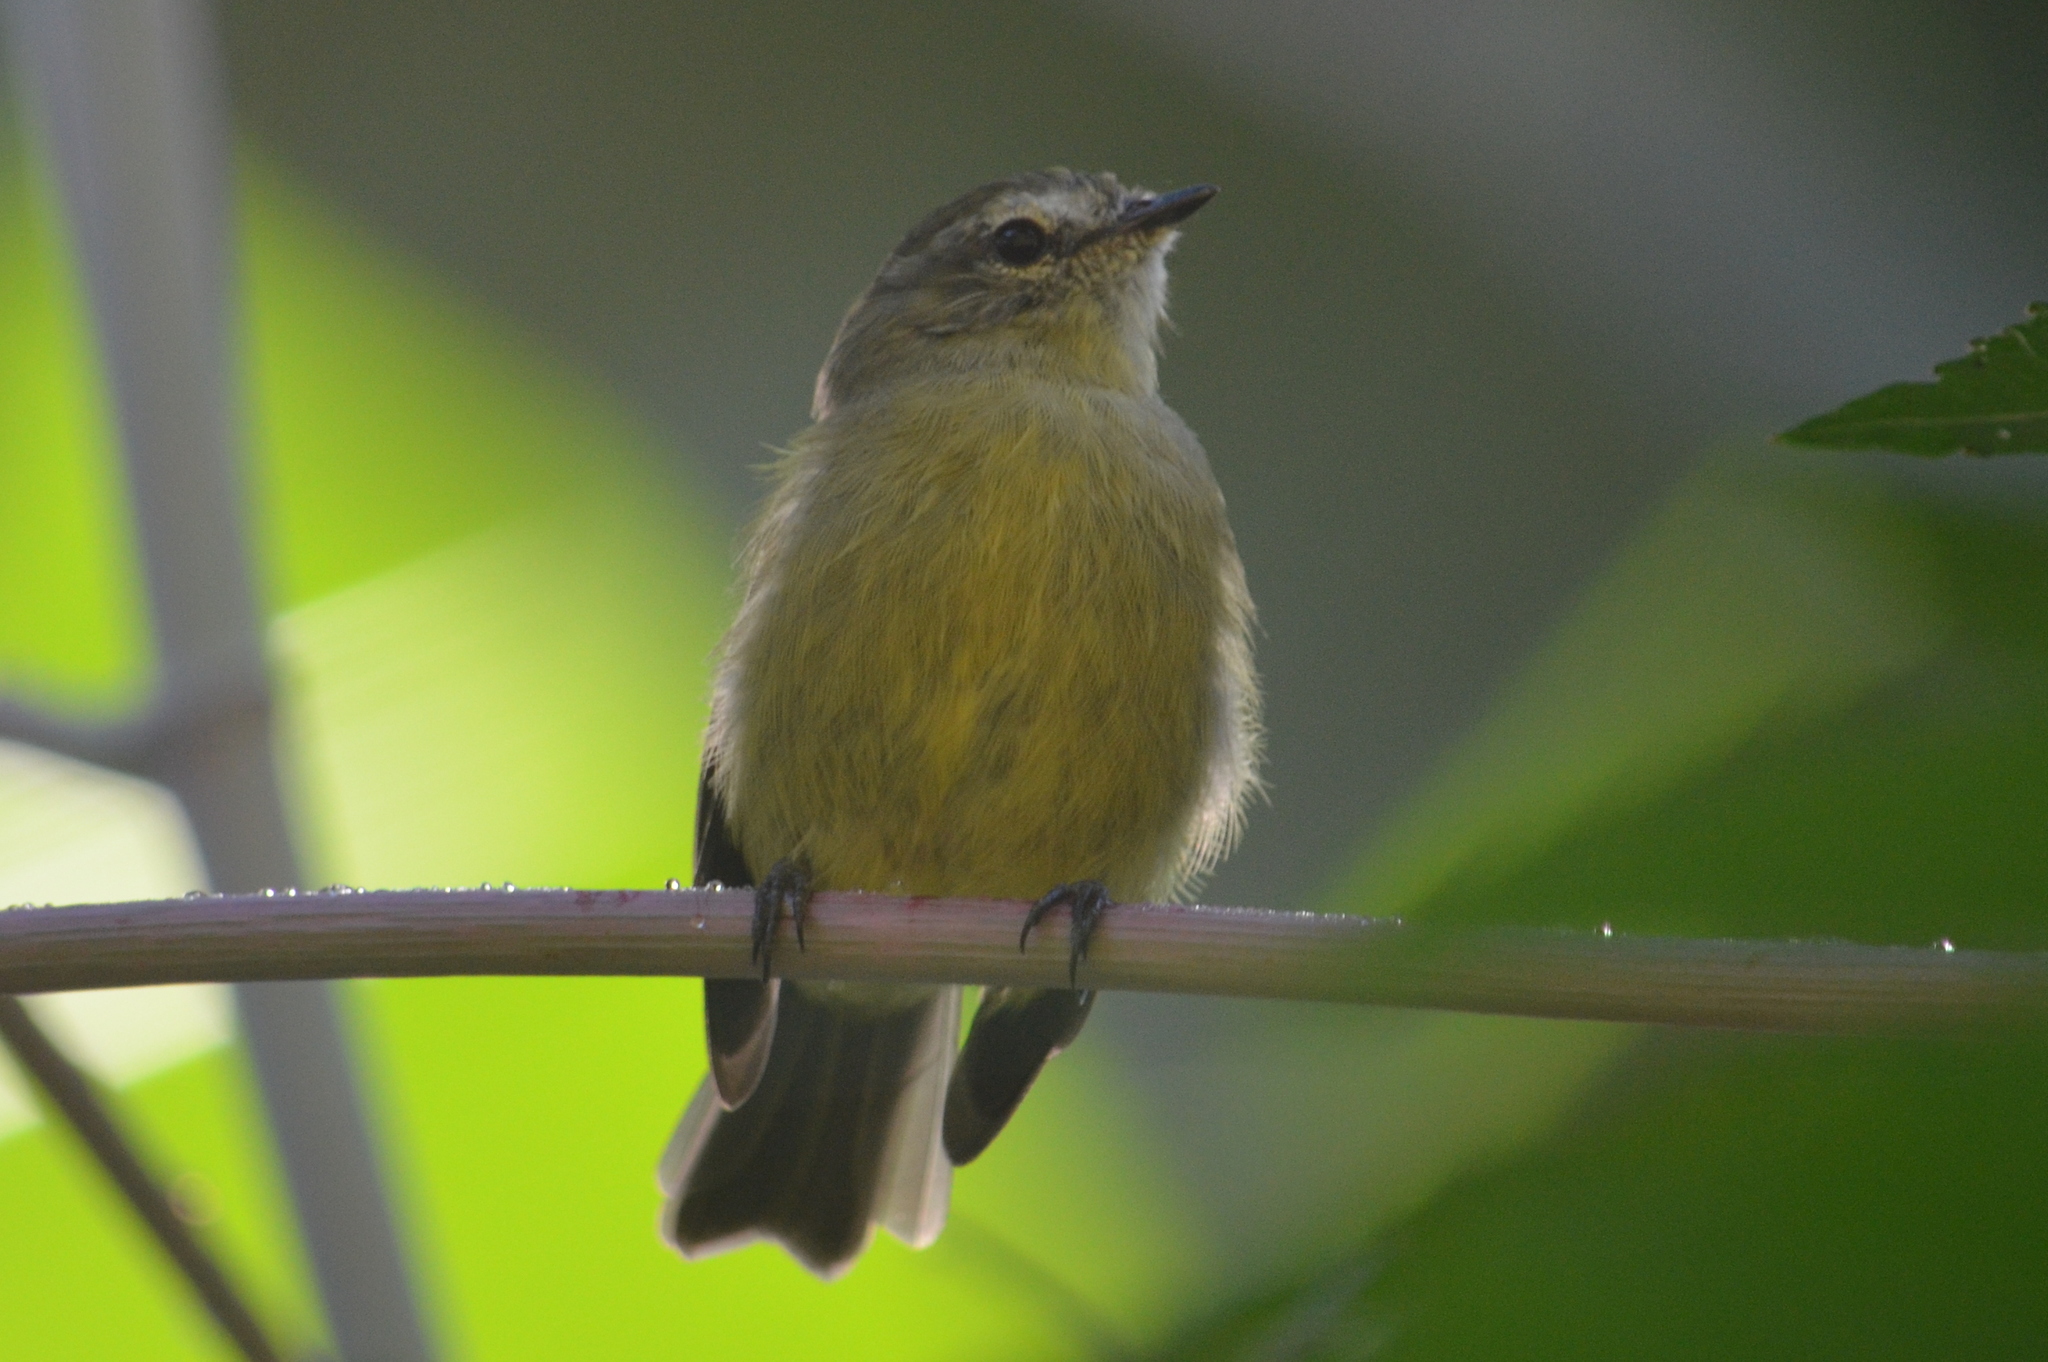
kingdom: Animalia
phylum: Chordata
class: Aves
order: Passeriformes
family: Tyrannidae
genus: Phyllomyias
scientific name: Phyllomyias fasciatus
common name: Planalto tyrannulet
